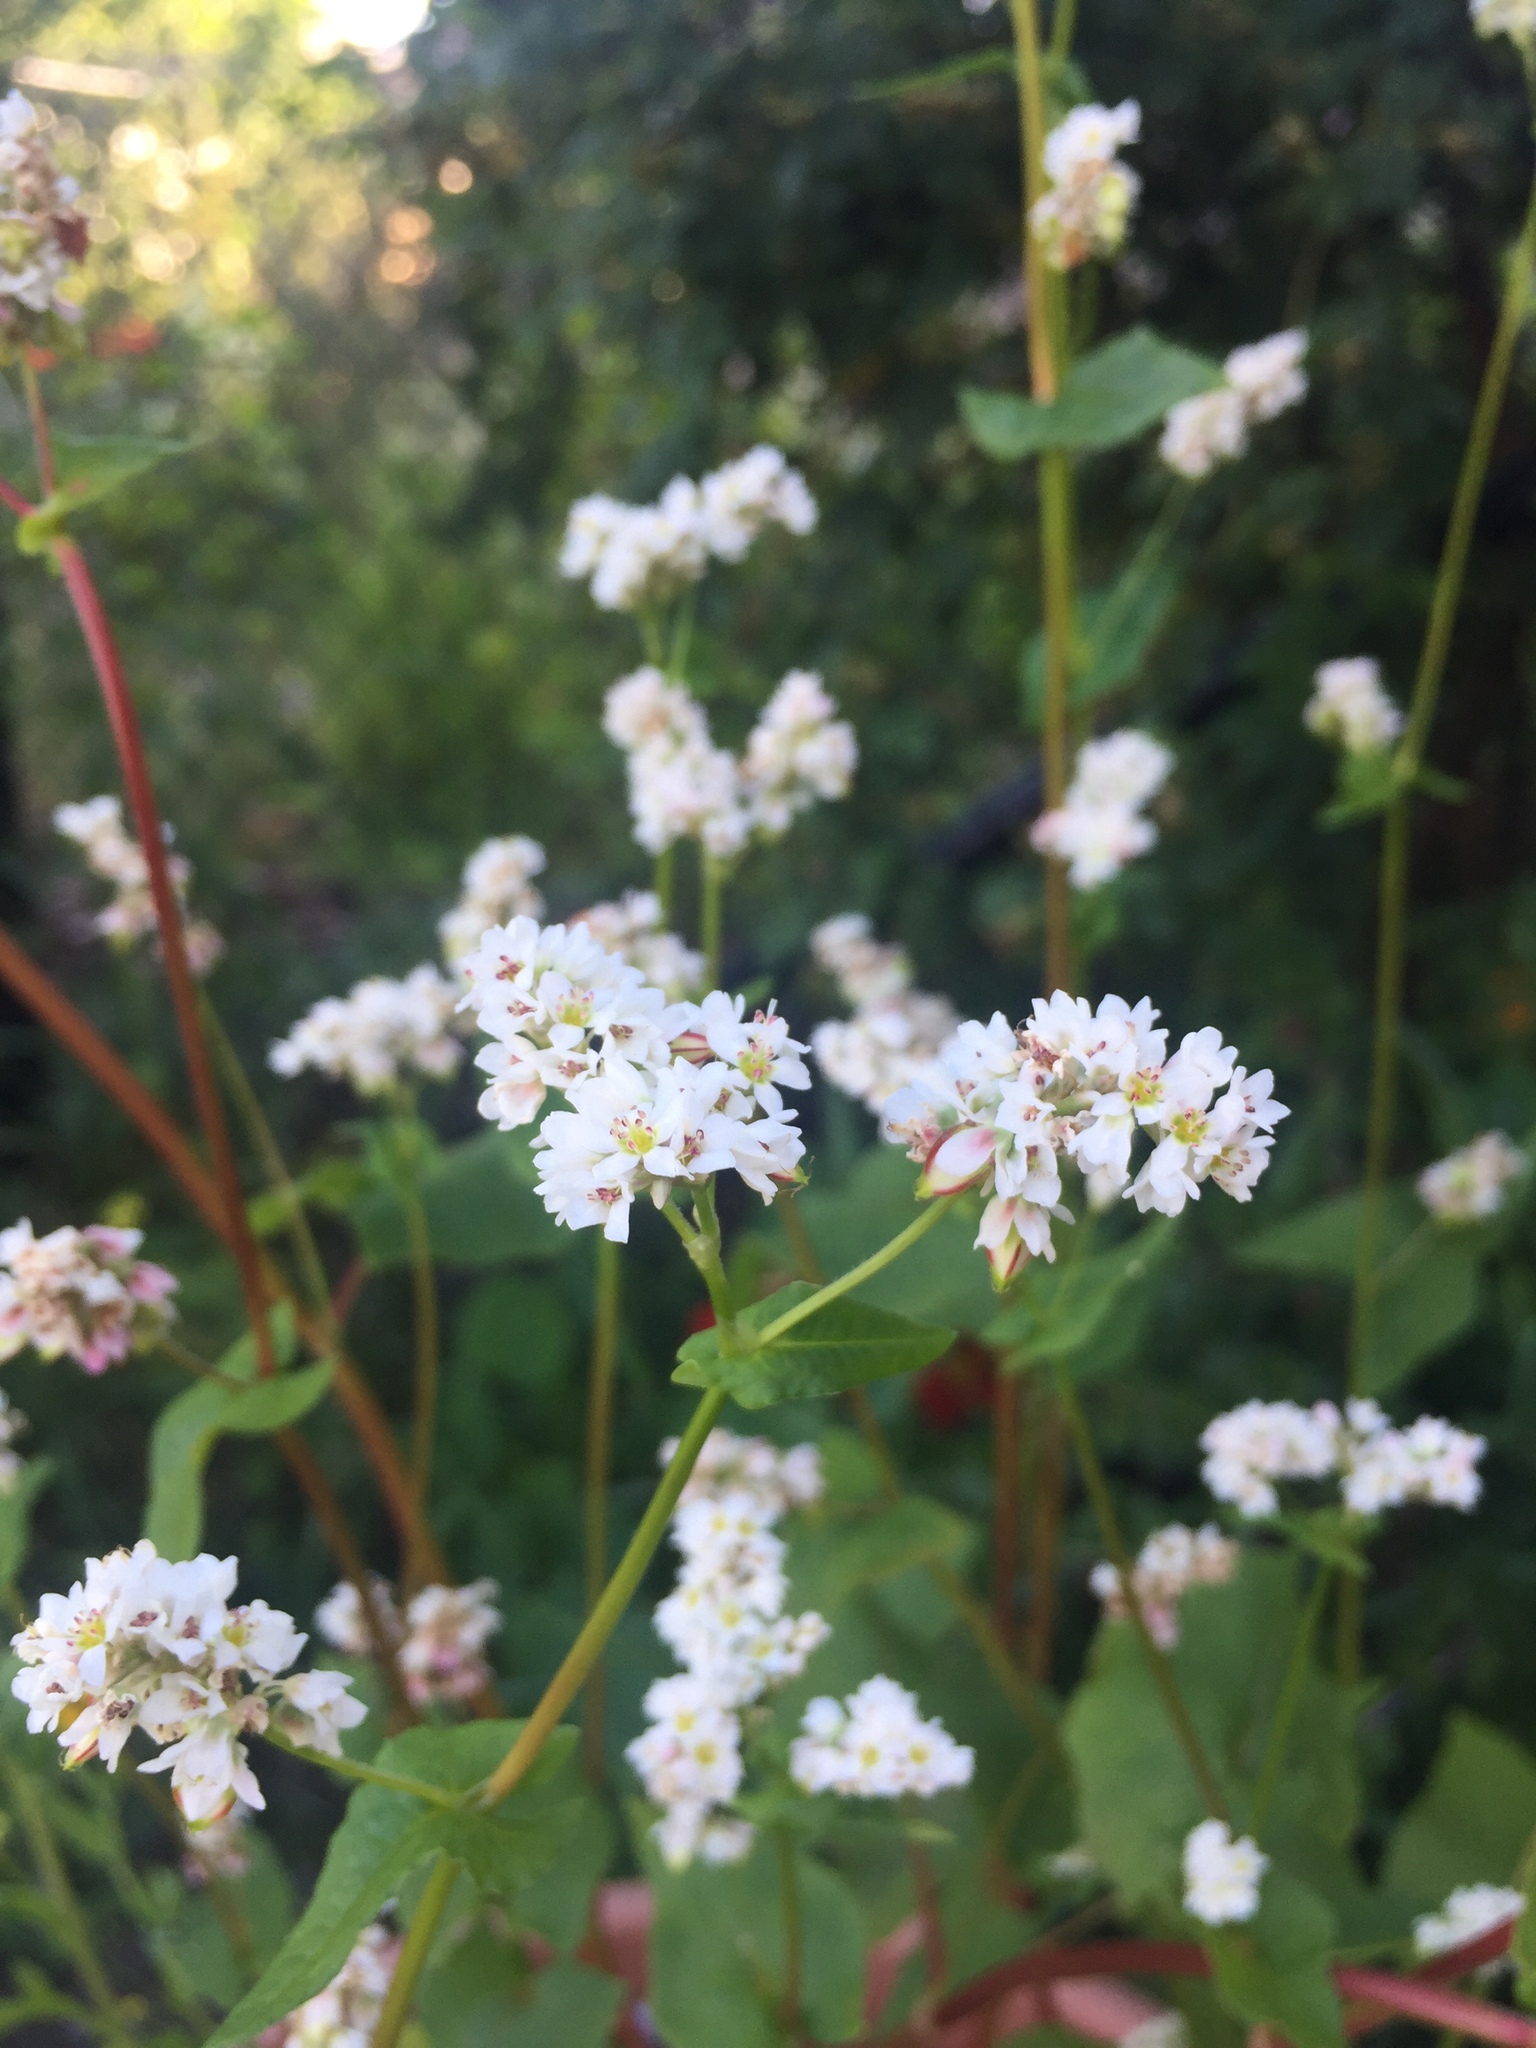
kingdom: Plantae
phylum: Tracheophyta
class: Magnoliopsida
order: Caryophyllales
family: Polygonaceae
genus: Fagopyrum
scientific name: Fagopyrum esculentum
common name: Buckwheat
